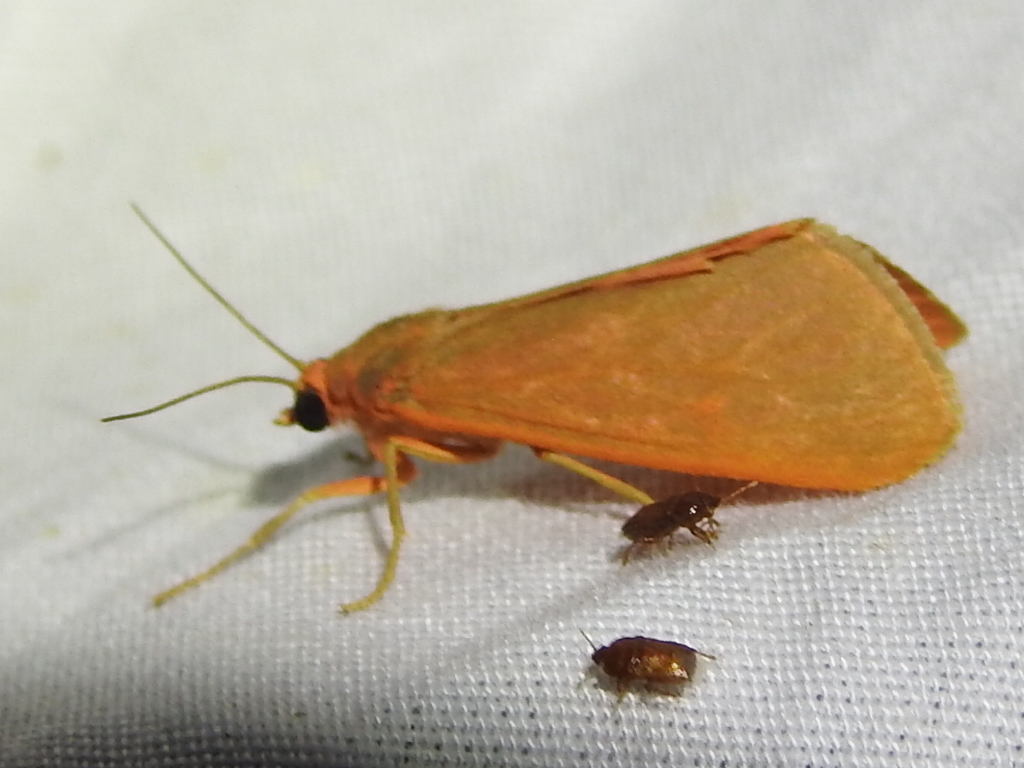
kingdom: Animalia
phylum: Arthropoda
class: Insecta
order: Lepidoptera
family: Erebidae
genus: Virbia
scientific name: Virbia costata
